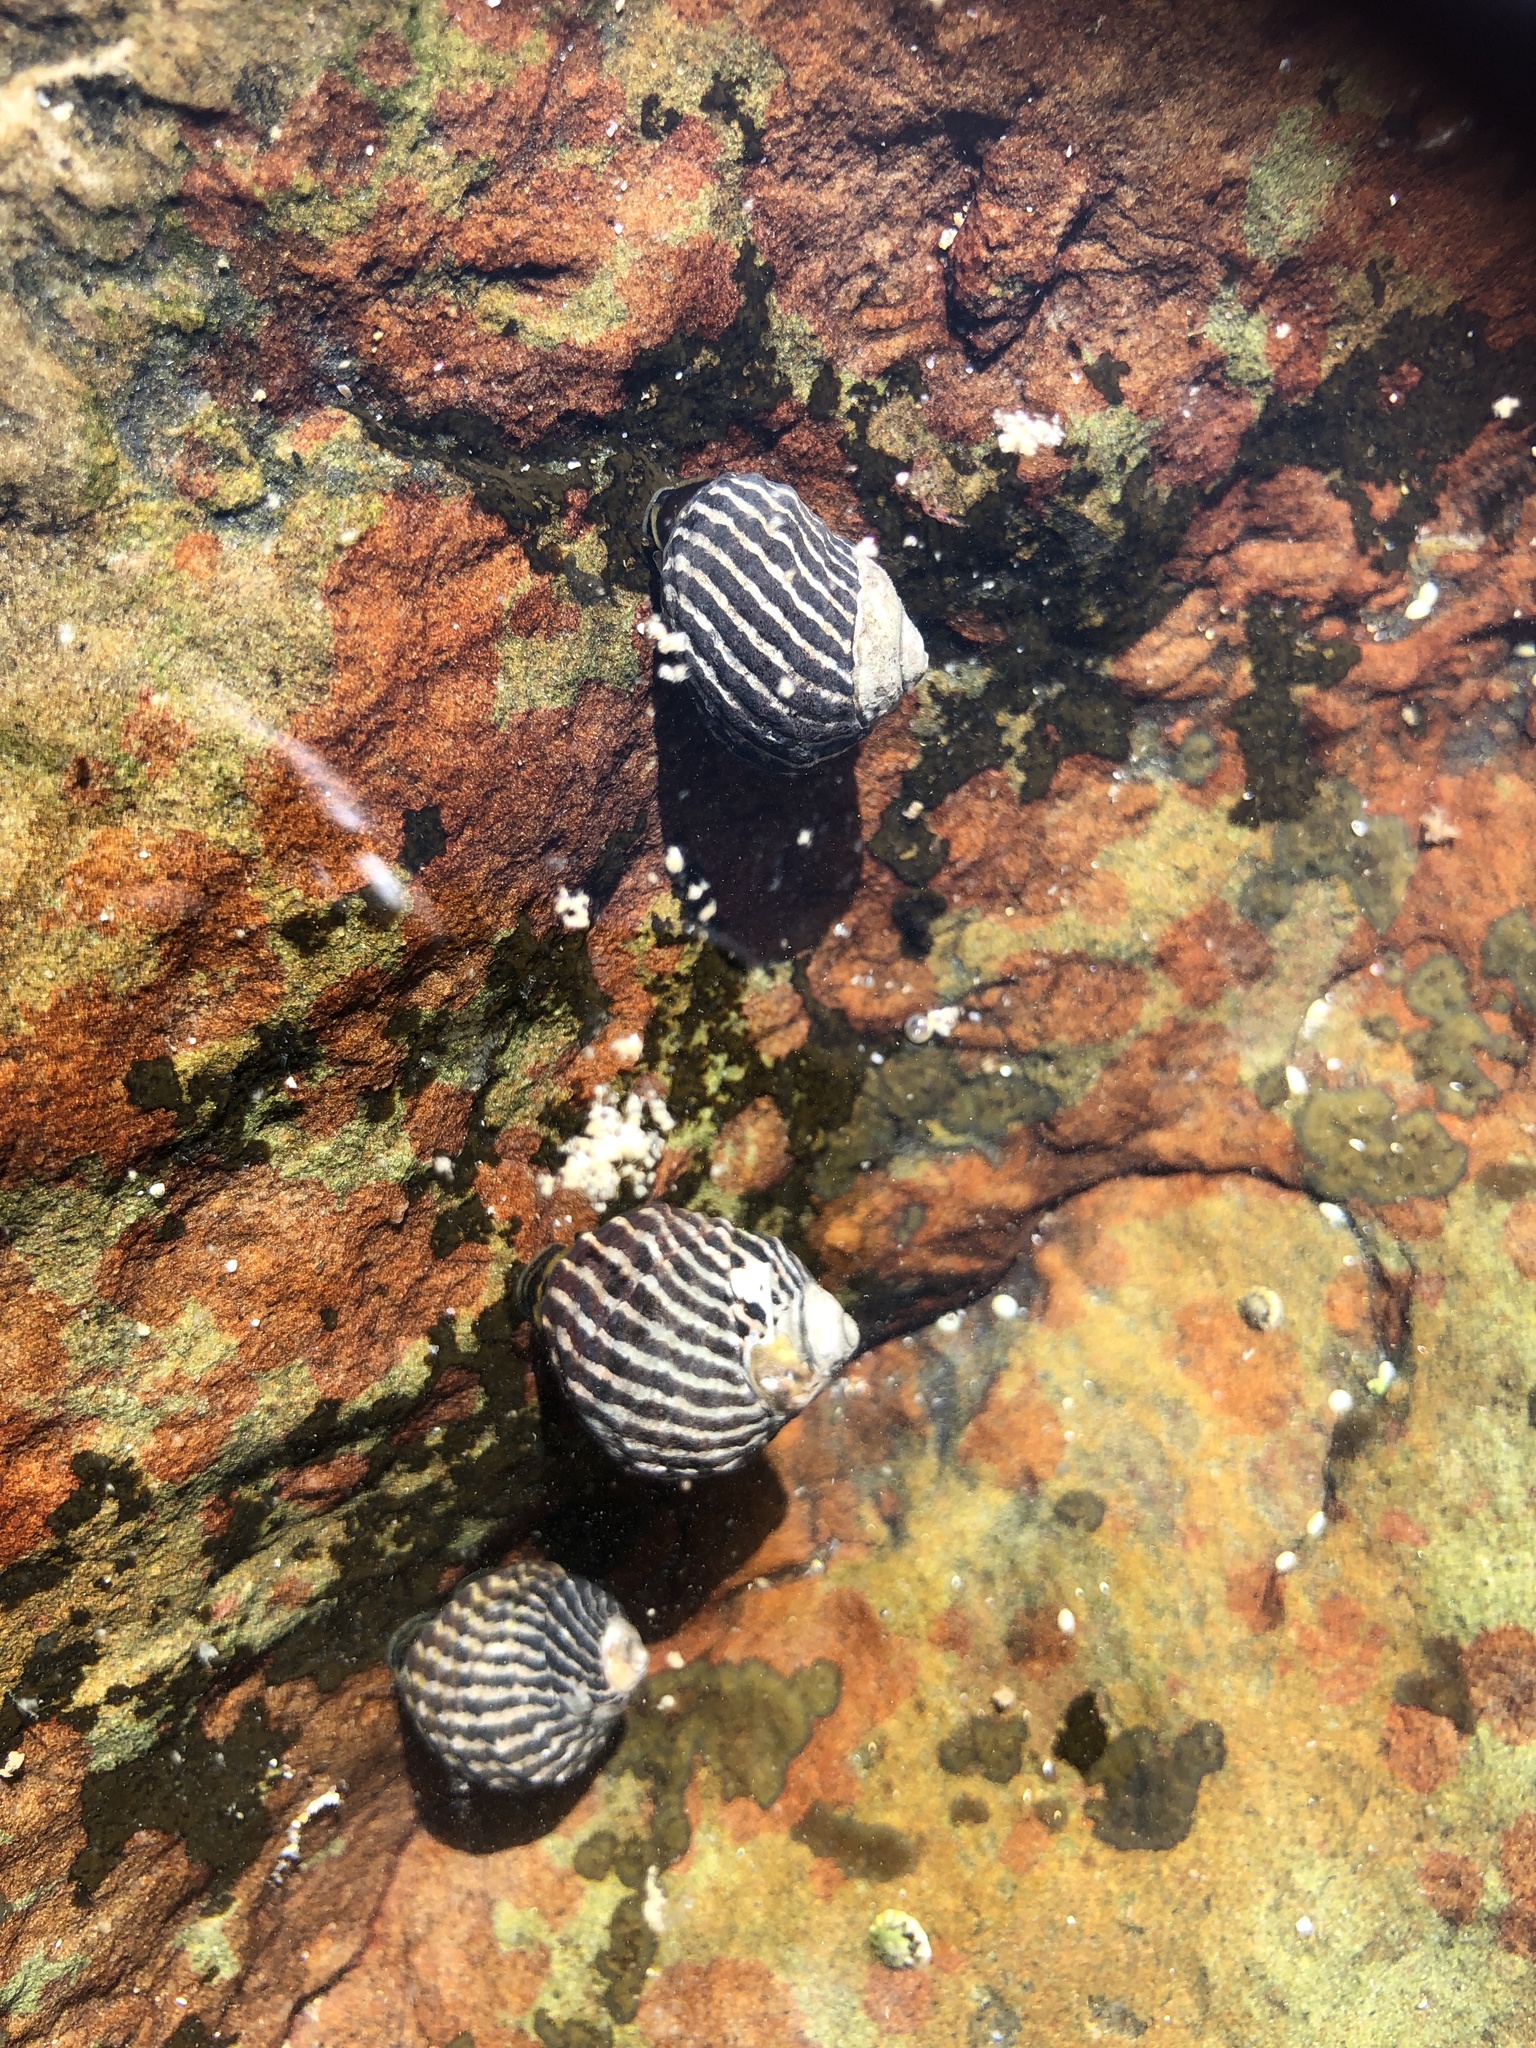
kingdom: Animalia
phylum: Mollusca
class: Gastropoda
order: Trochida
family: Trochidae
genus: Austrocochlea
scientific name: Austrocochlea porcata
